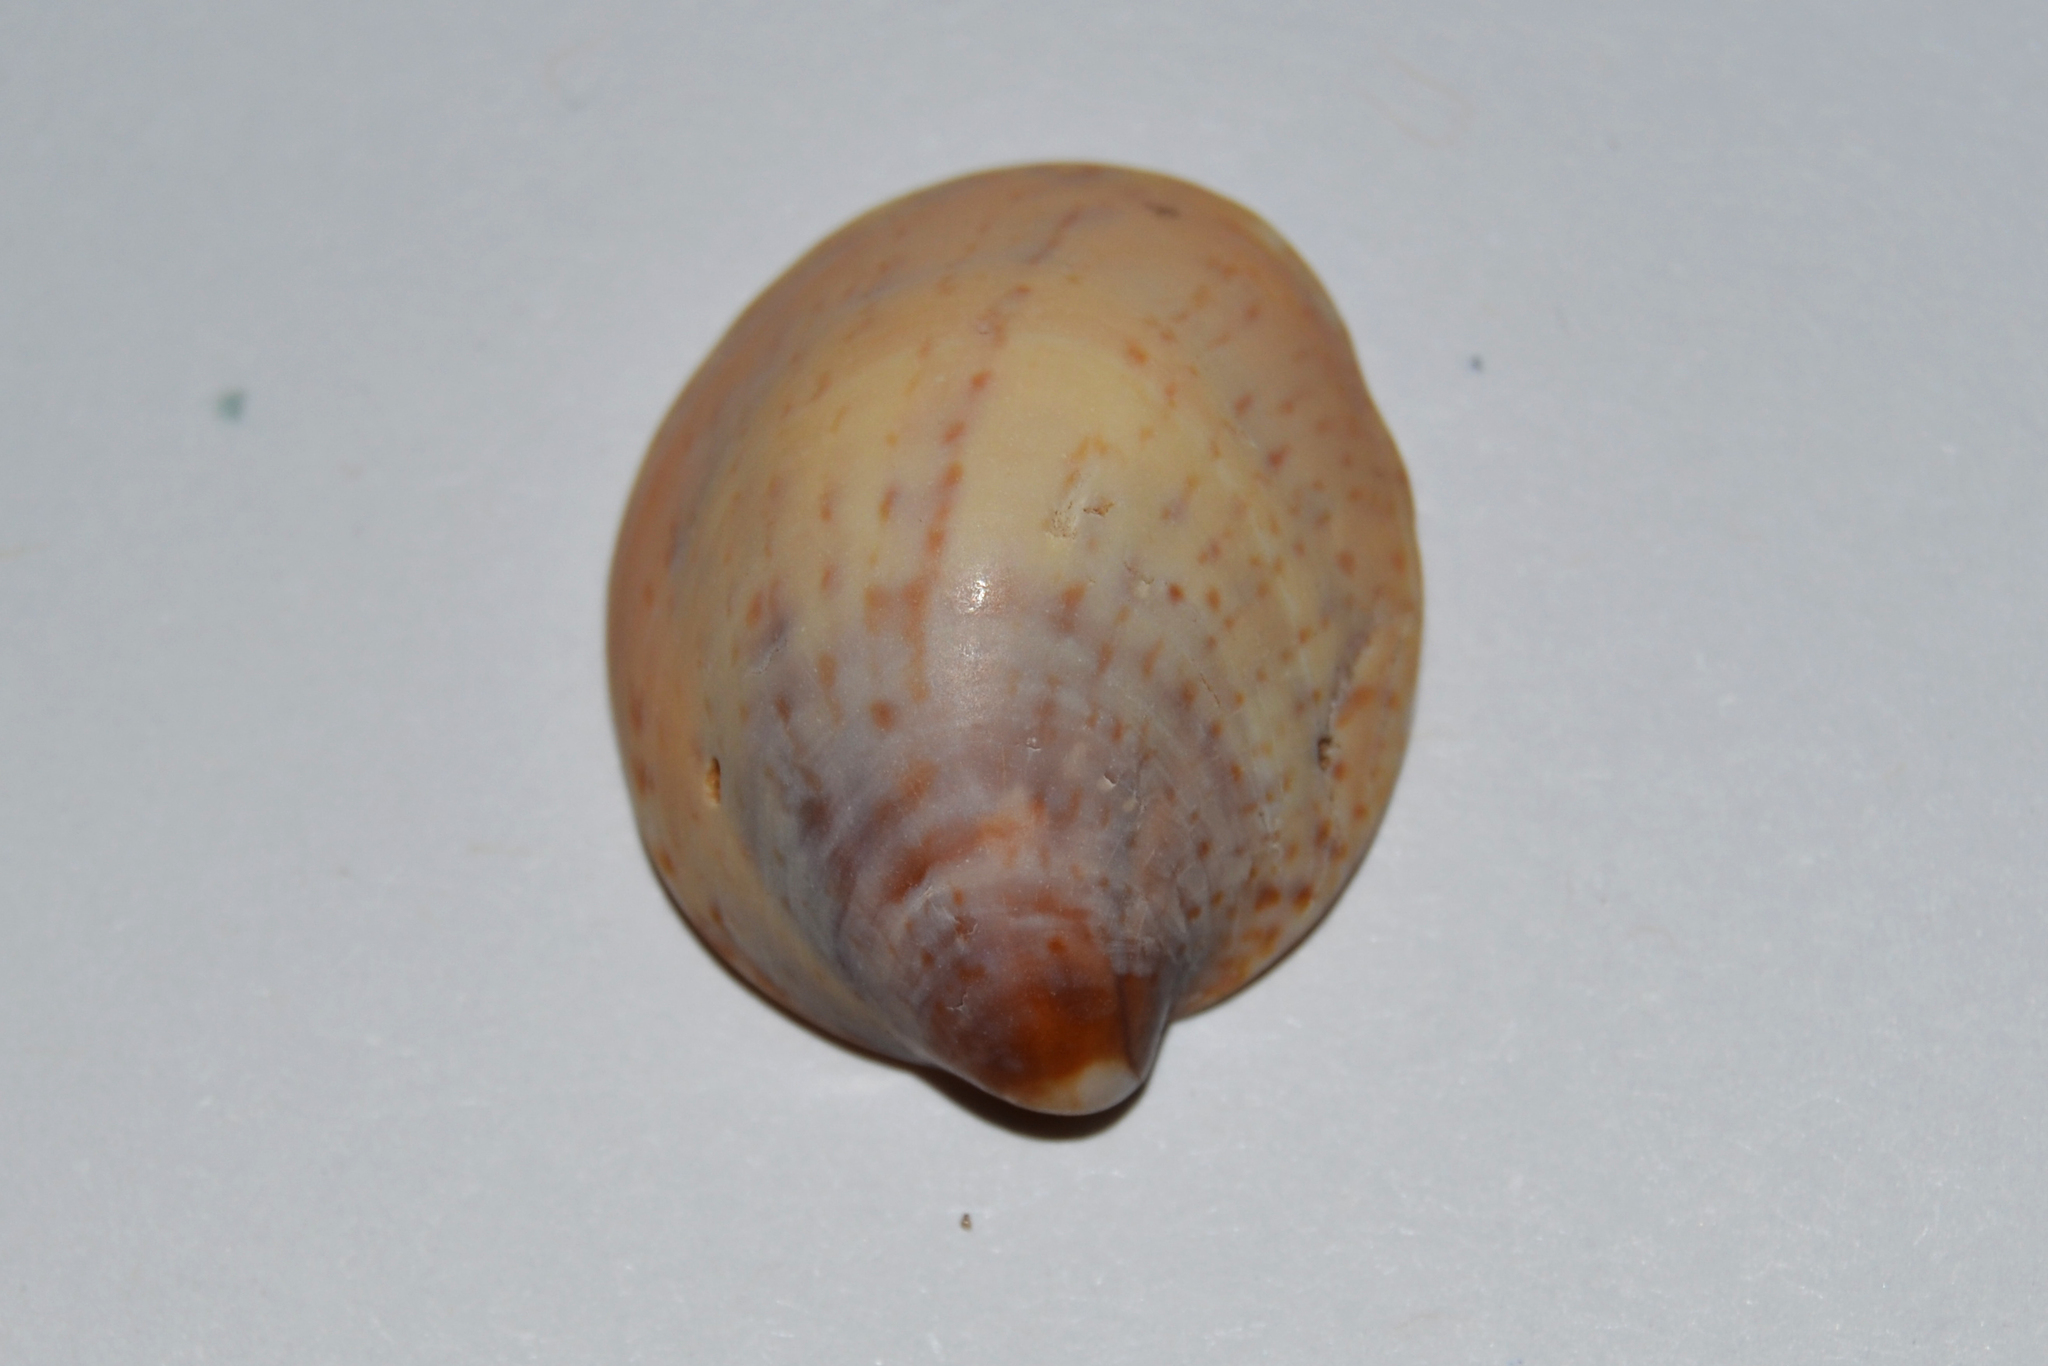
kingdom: Animalia
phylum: Mollusca
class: Gastropoda
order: Littorinimorpha
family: Calyptraeidae
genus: Crepidula
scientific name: Crepidula fornicata
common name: Slipper limpet
